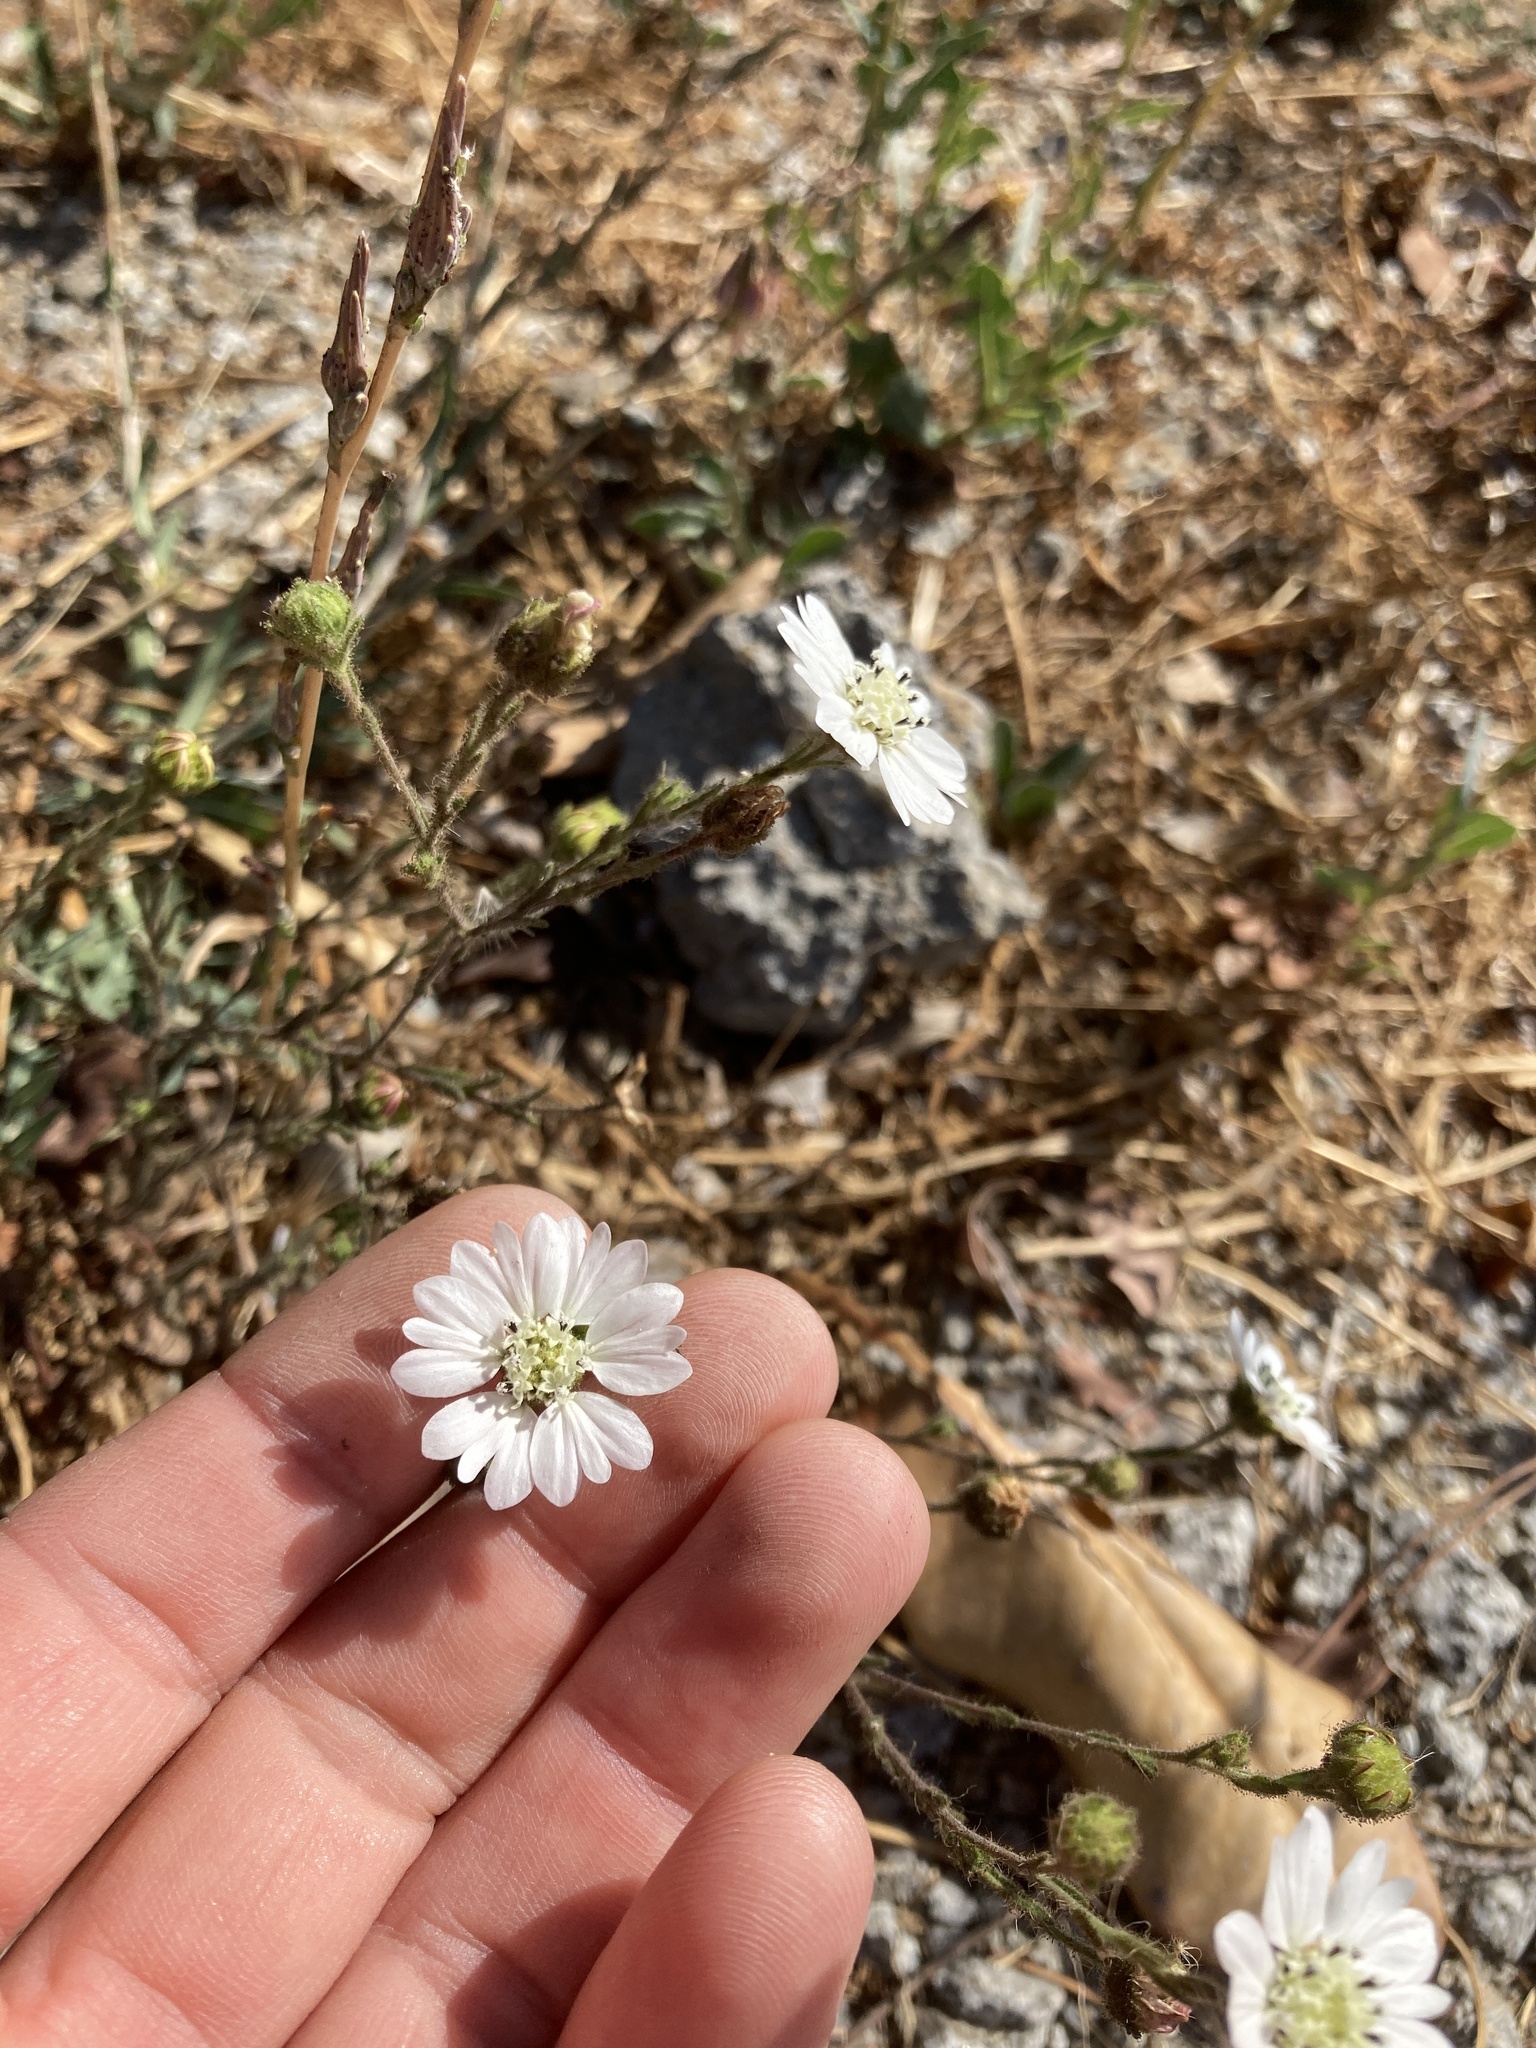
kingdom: Plantae
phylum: Tracheophyta
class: Magnoliopsida
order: Asterales
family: Asteraceae
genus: Hemizonia
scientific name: Hemizonia congesta
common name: Hayfield tarweed
